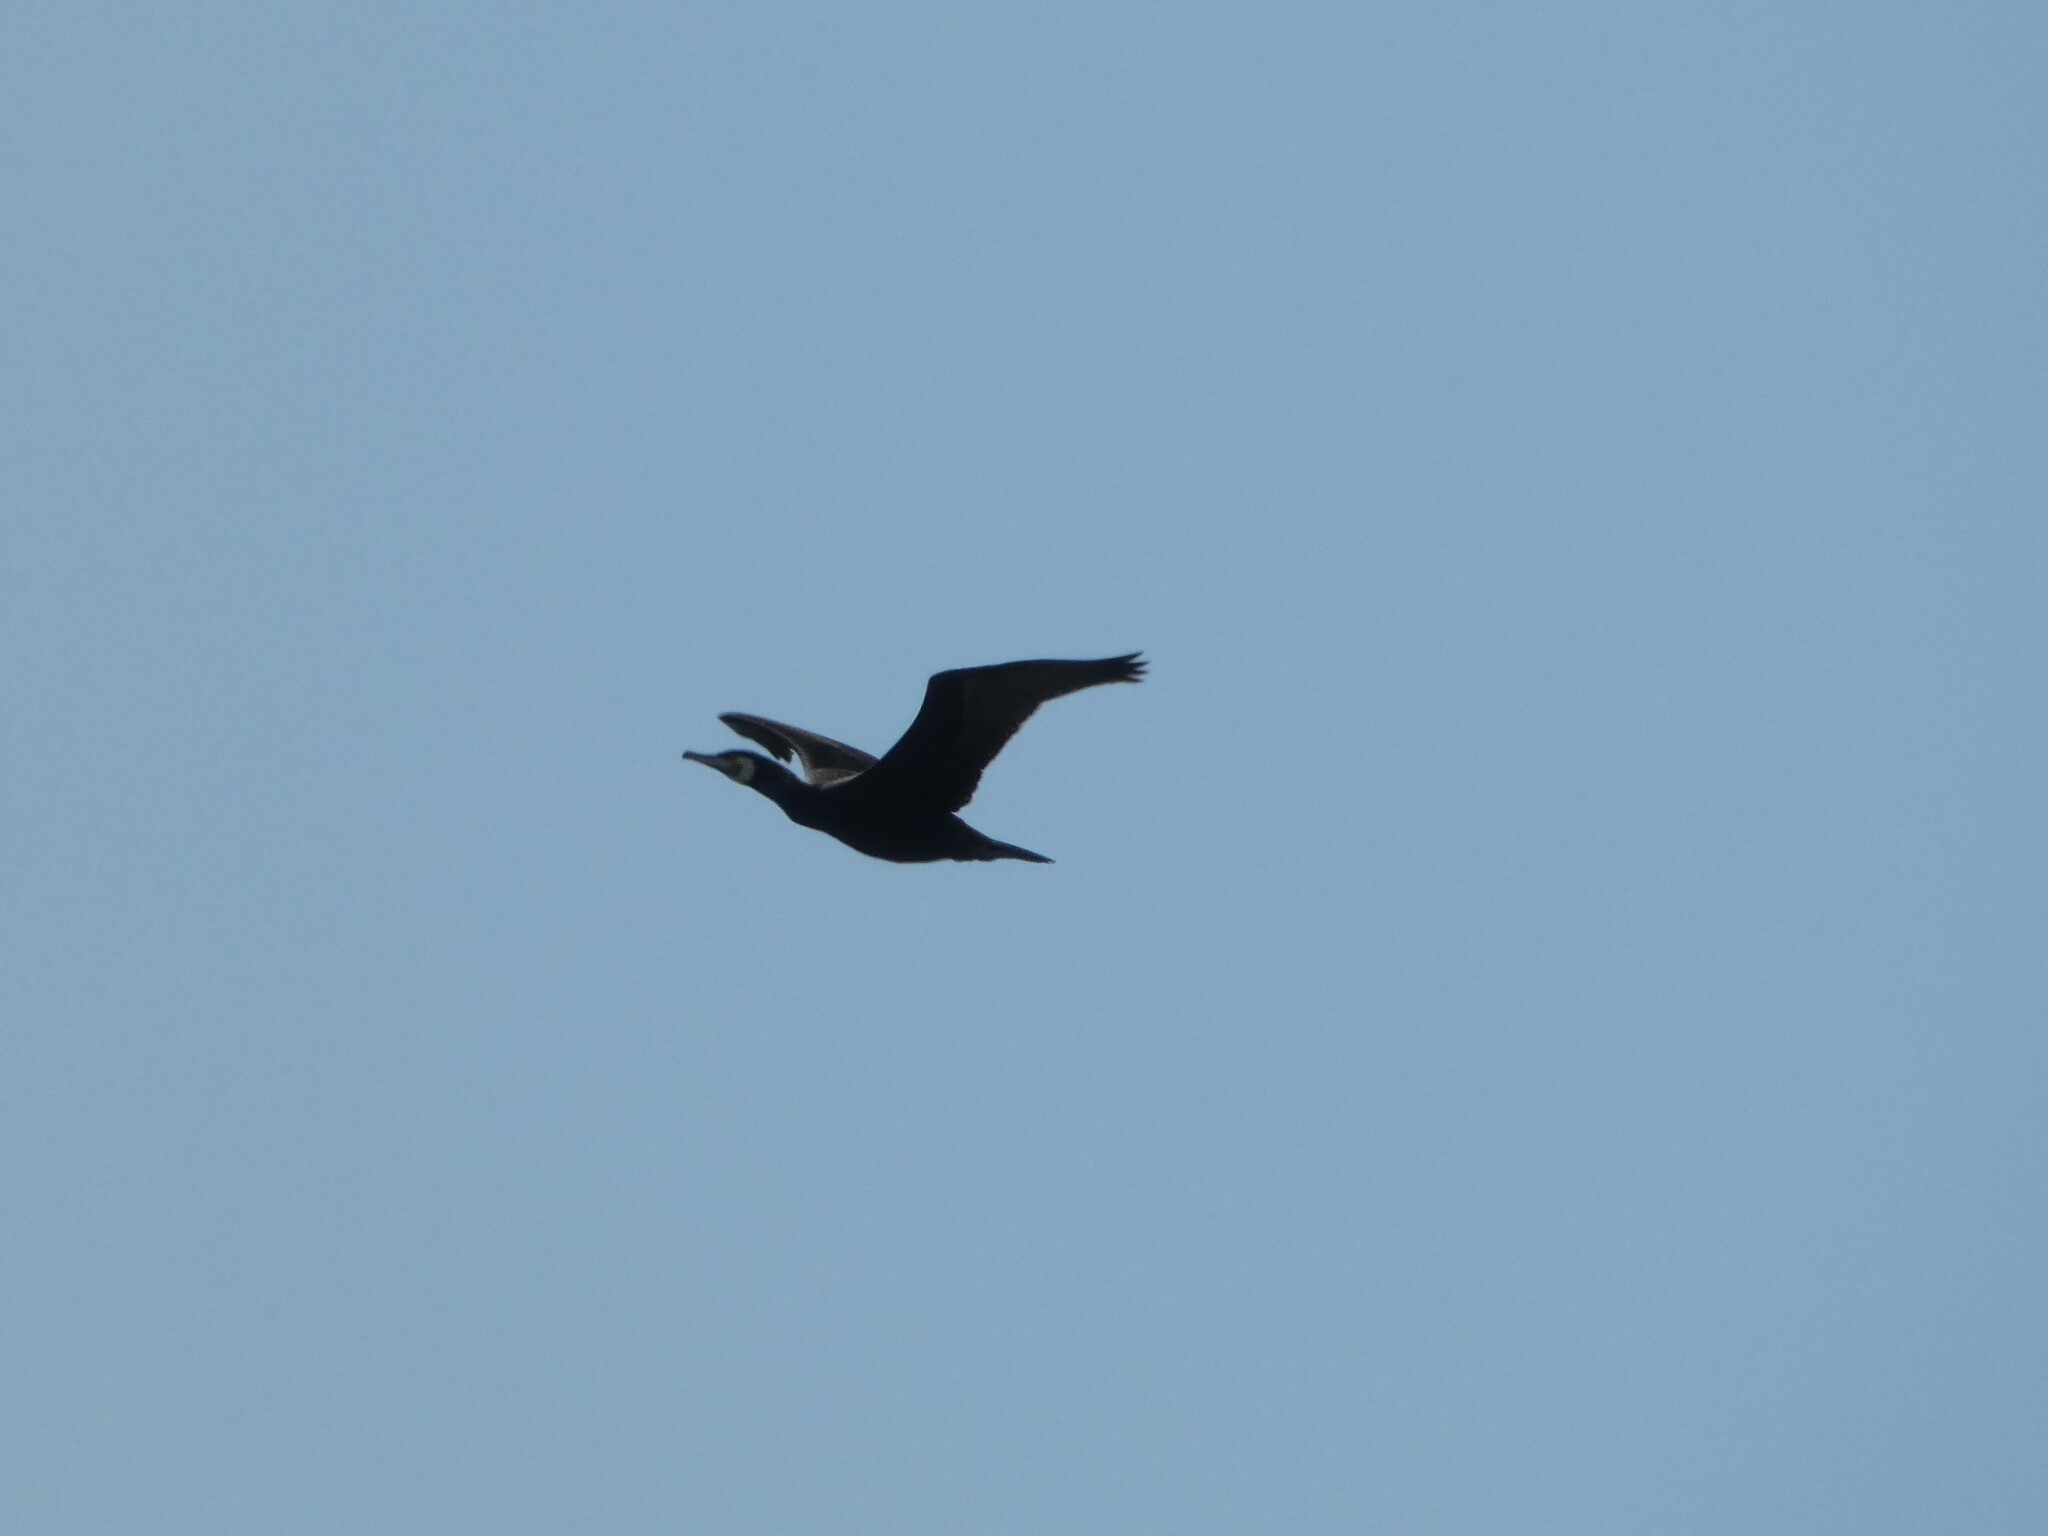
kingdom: Animalia
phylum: Chordata
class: Aves
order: Suliformes
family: Phalacrocoracidae
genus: Phalacrocorax
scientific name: Phalacrocorax carbo
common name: Great cormorant
